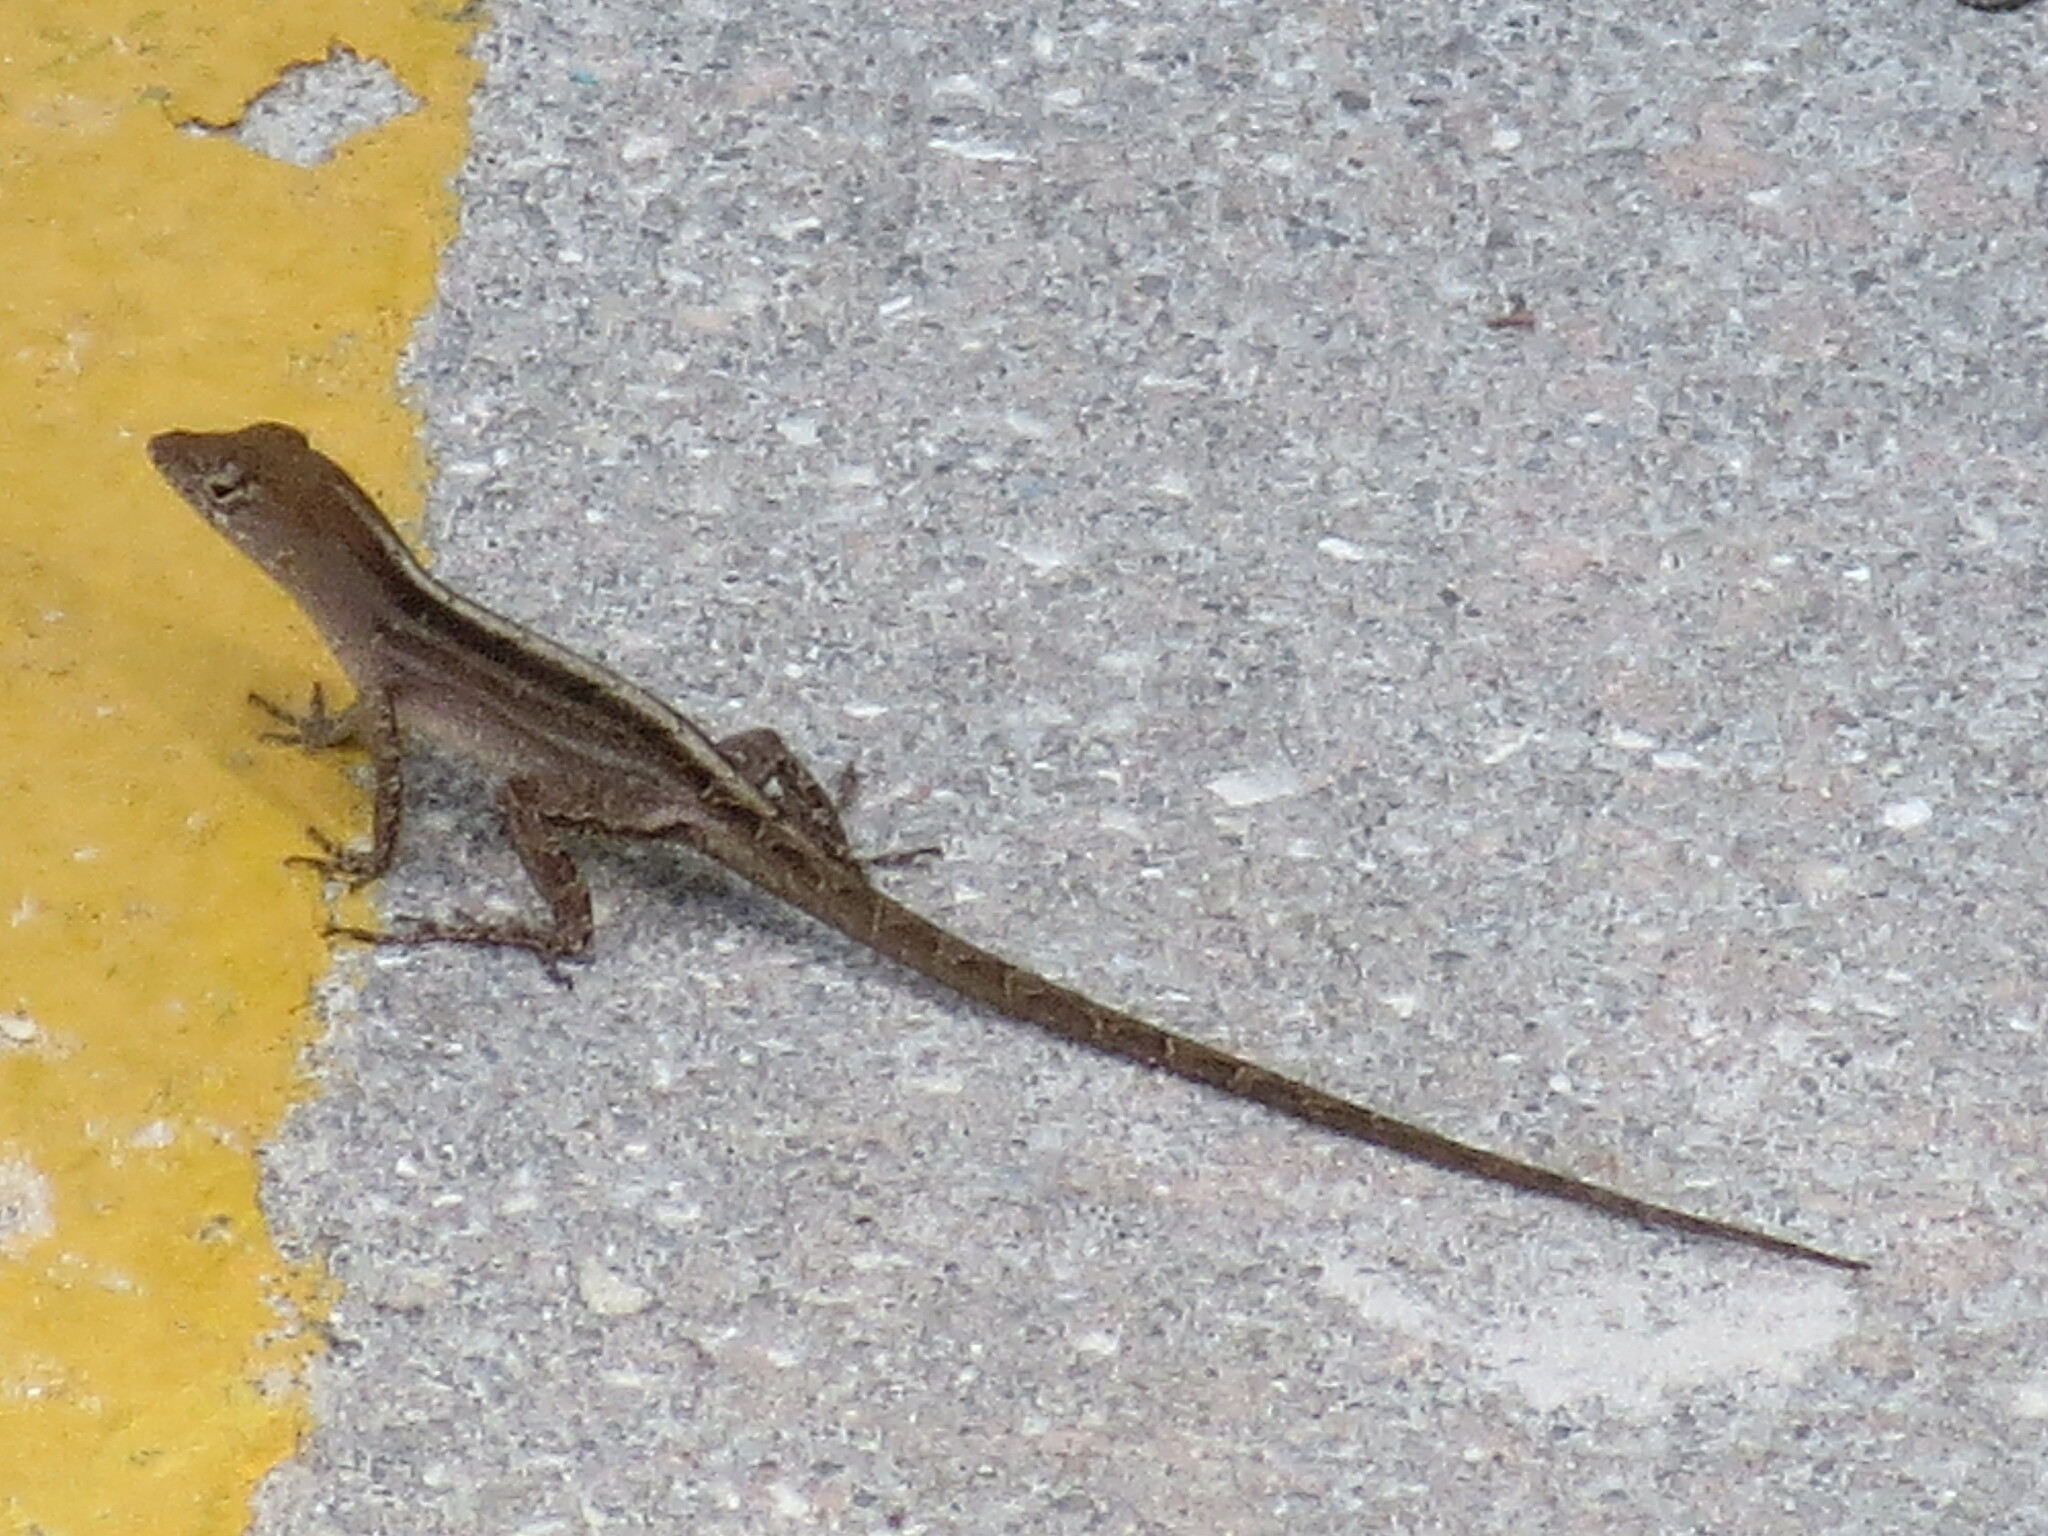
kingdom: Animalia
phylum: Chordata
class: Squamata
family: Dactyloidae
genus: Anolis
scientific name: Anolis sagrei
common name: Brown anole
